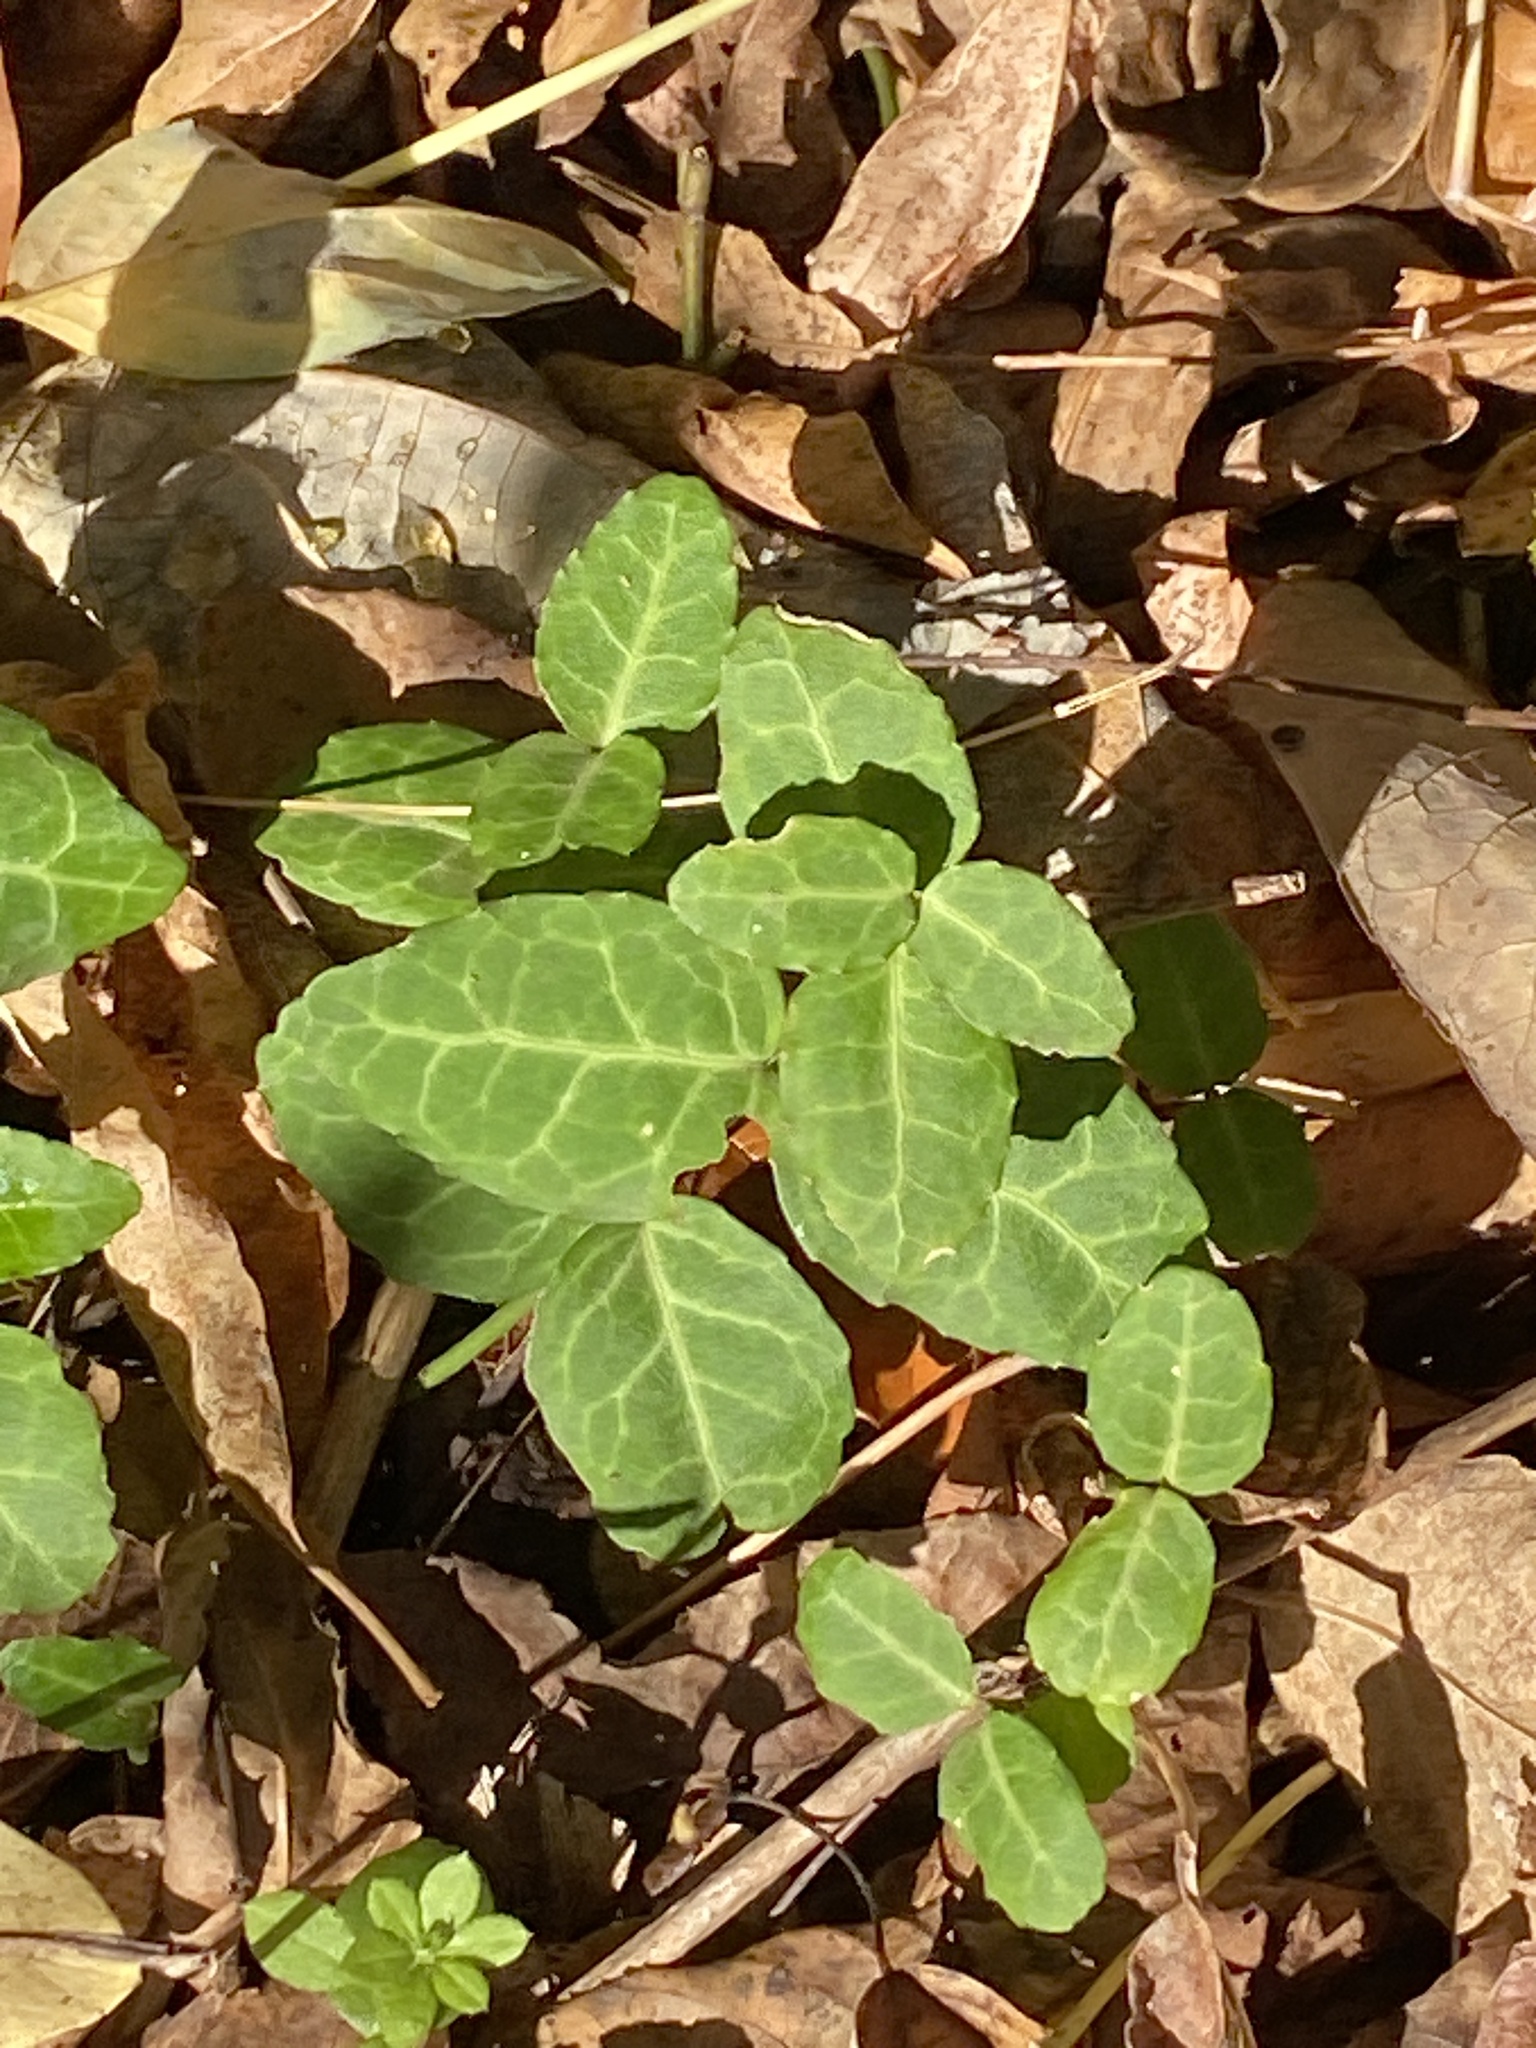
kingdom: Plantae
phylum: Tracheophyta
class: Magnoliopsida
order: Celastrales
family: Celastraceae
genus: Euonymus
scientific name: Euonymus fortunei
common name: Climbing euonymus
